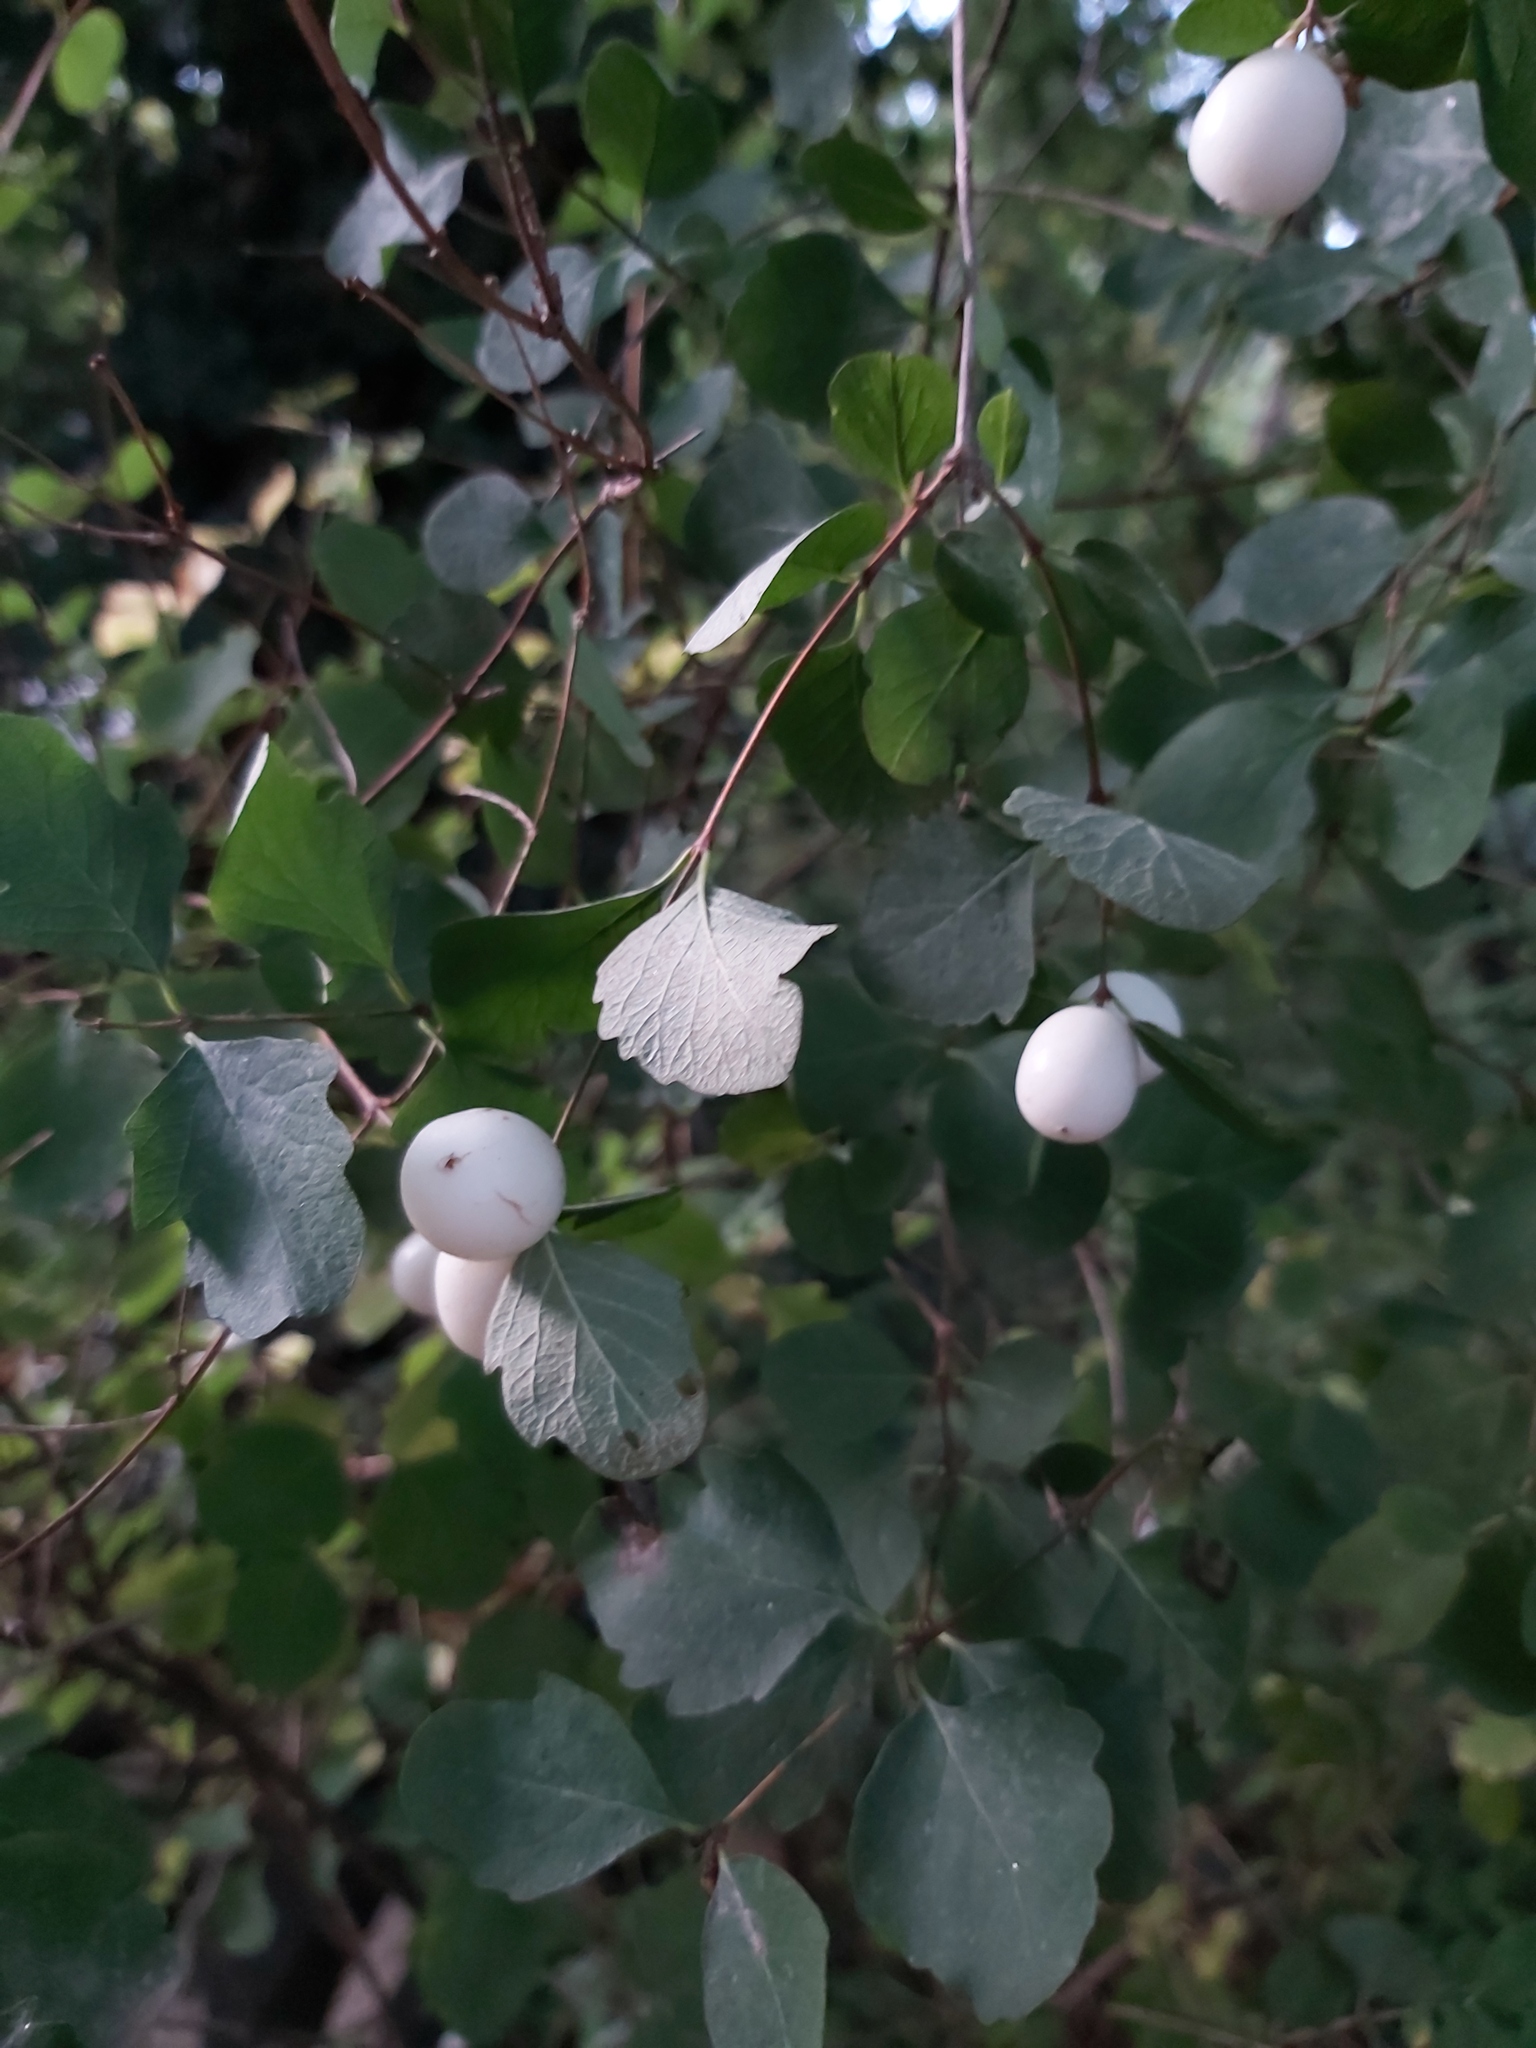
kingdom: Plantae
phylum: Tracheophyta
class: Magnoliopsida
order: Dipsacales
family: Caprifoliaceae
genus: Symphoricarpos
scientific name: Symphoricarpos albus
